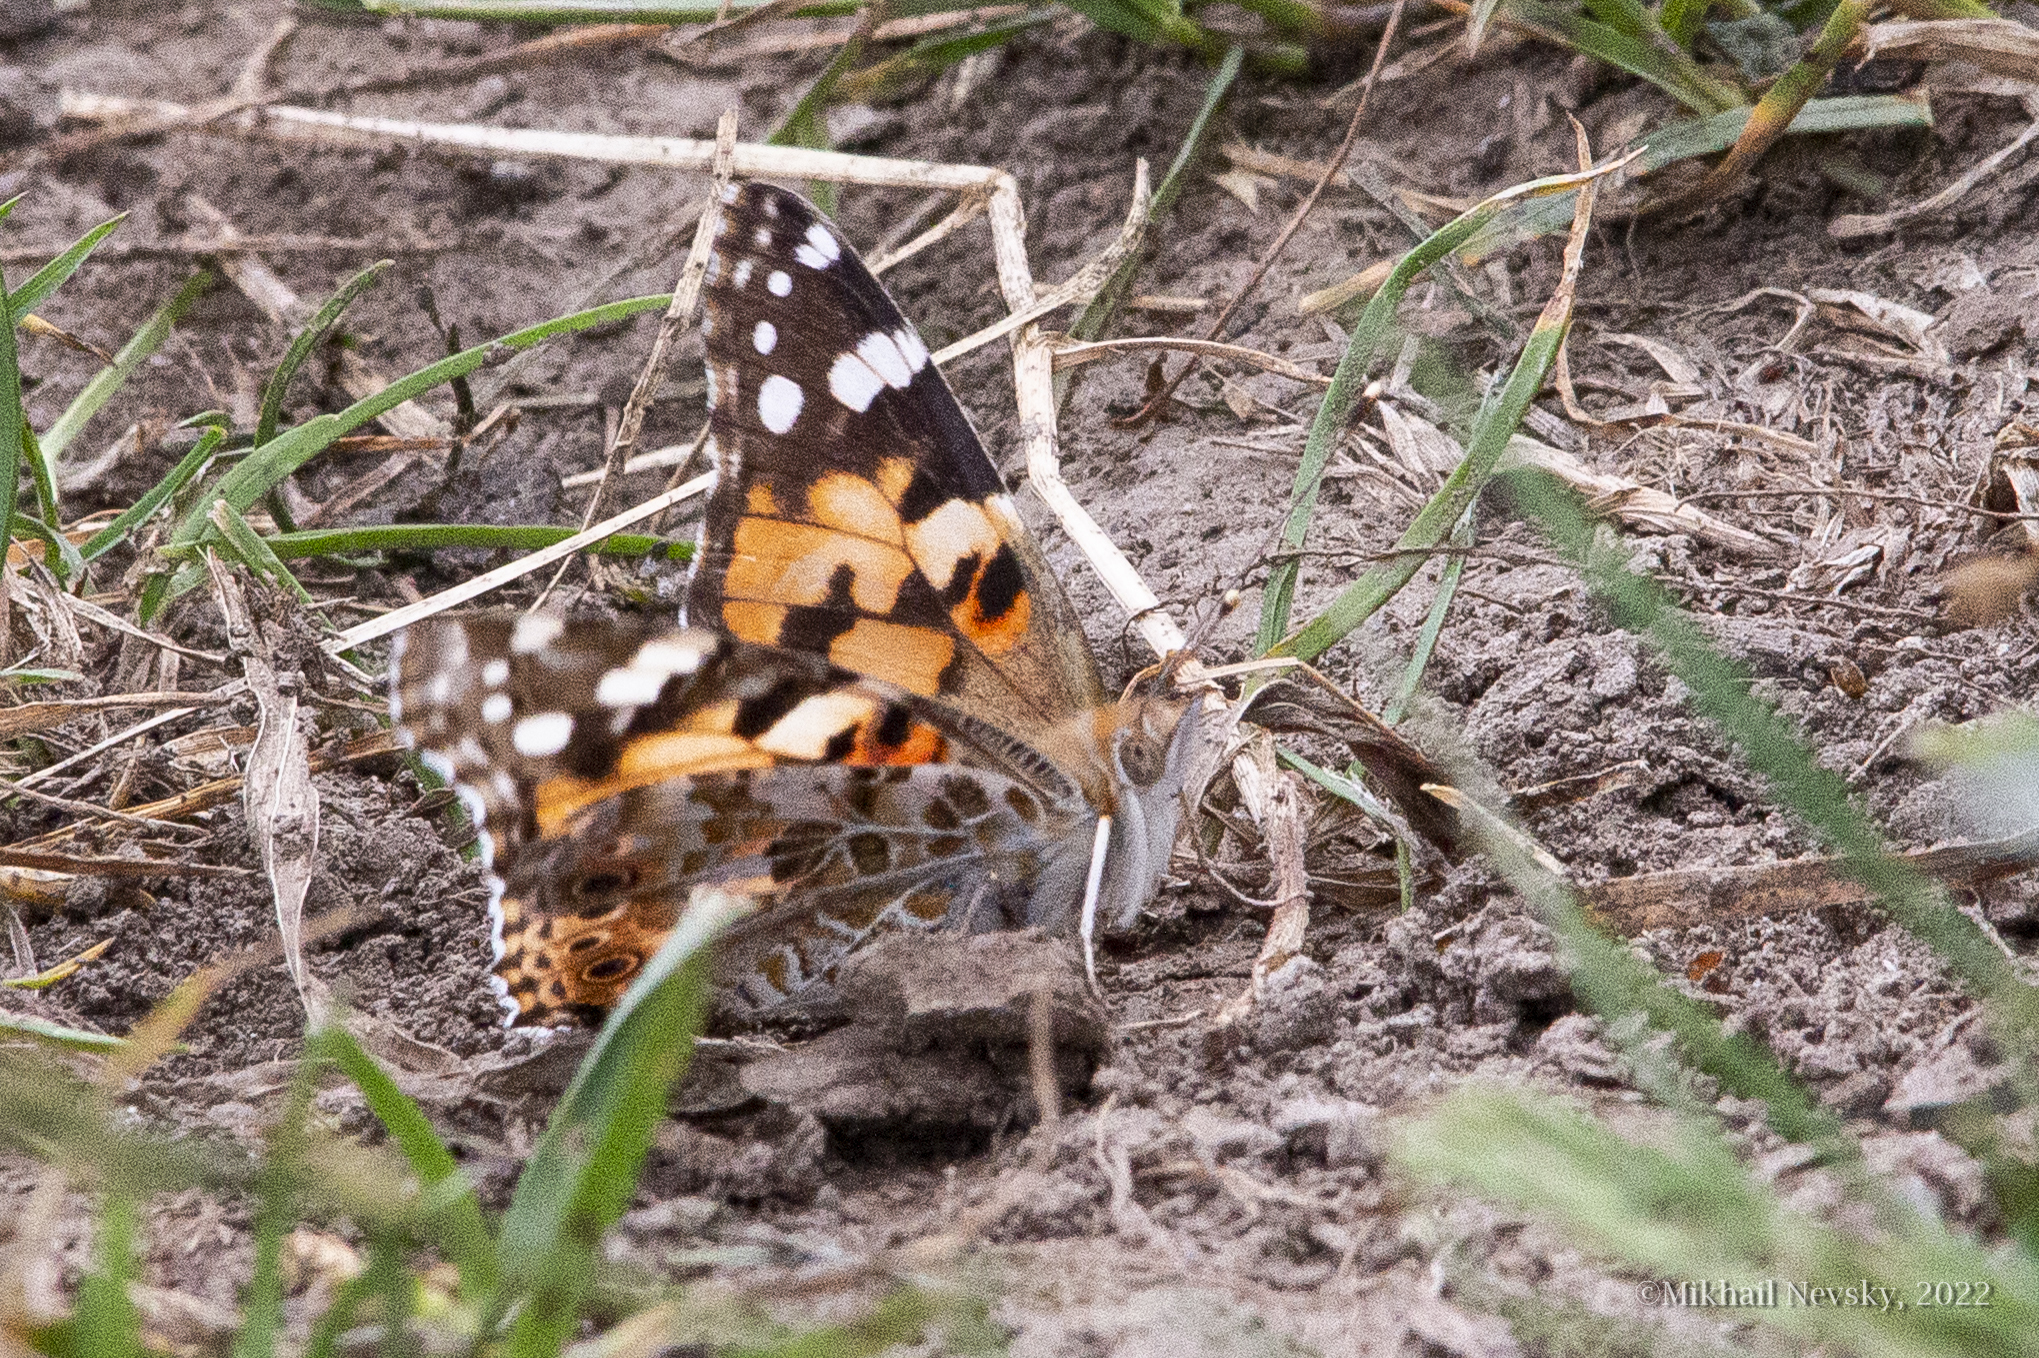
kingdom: Animalia
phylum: Arthropoda
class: Insecta
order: Lepidoptera
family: Nymphalidae
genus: Vanessa
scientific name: Vanessa cardui
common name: Painted lady
